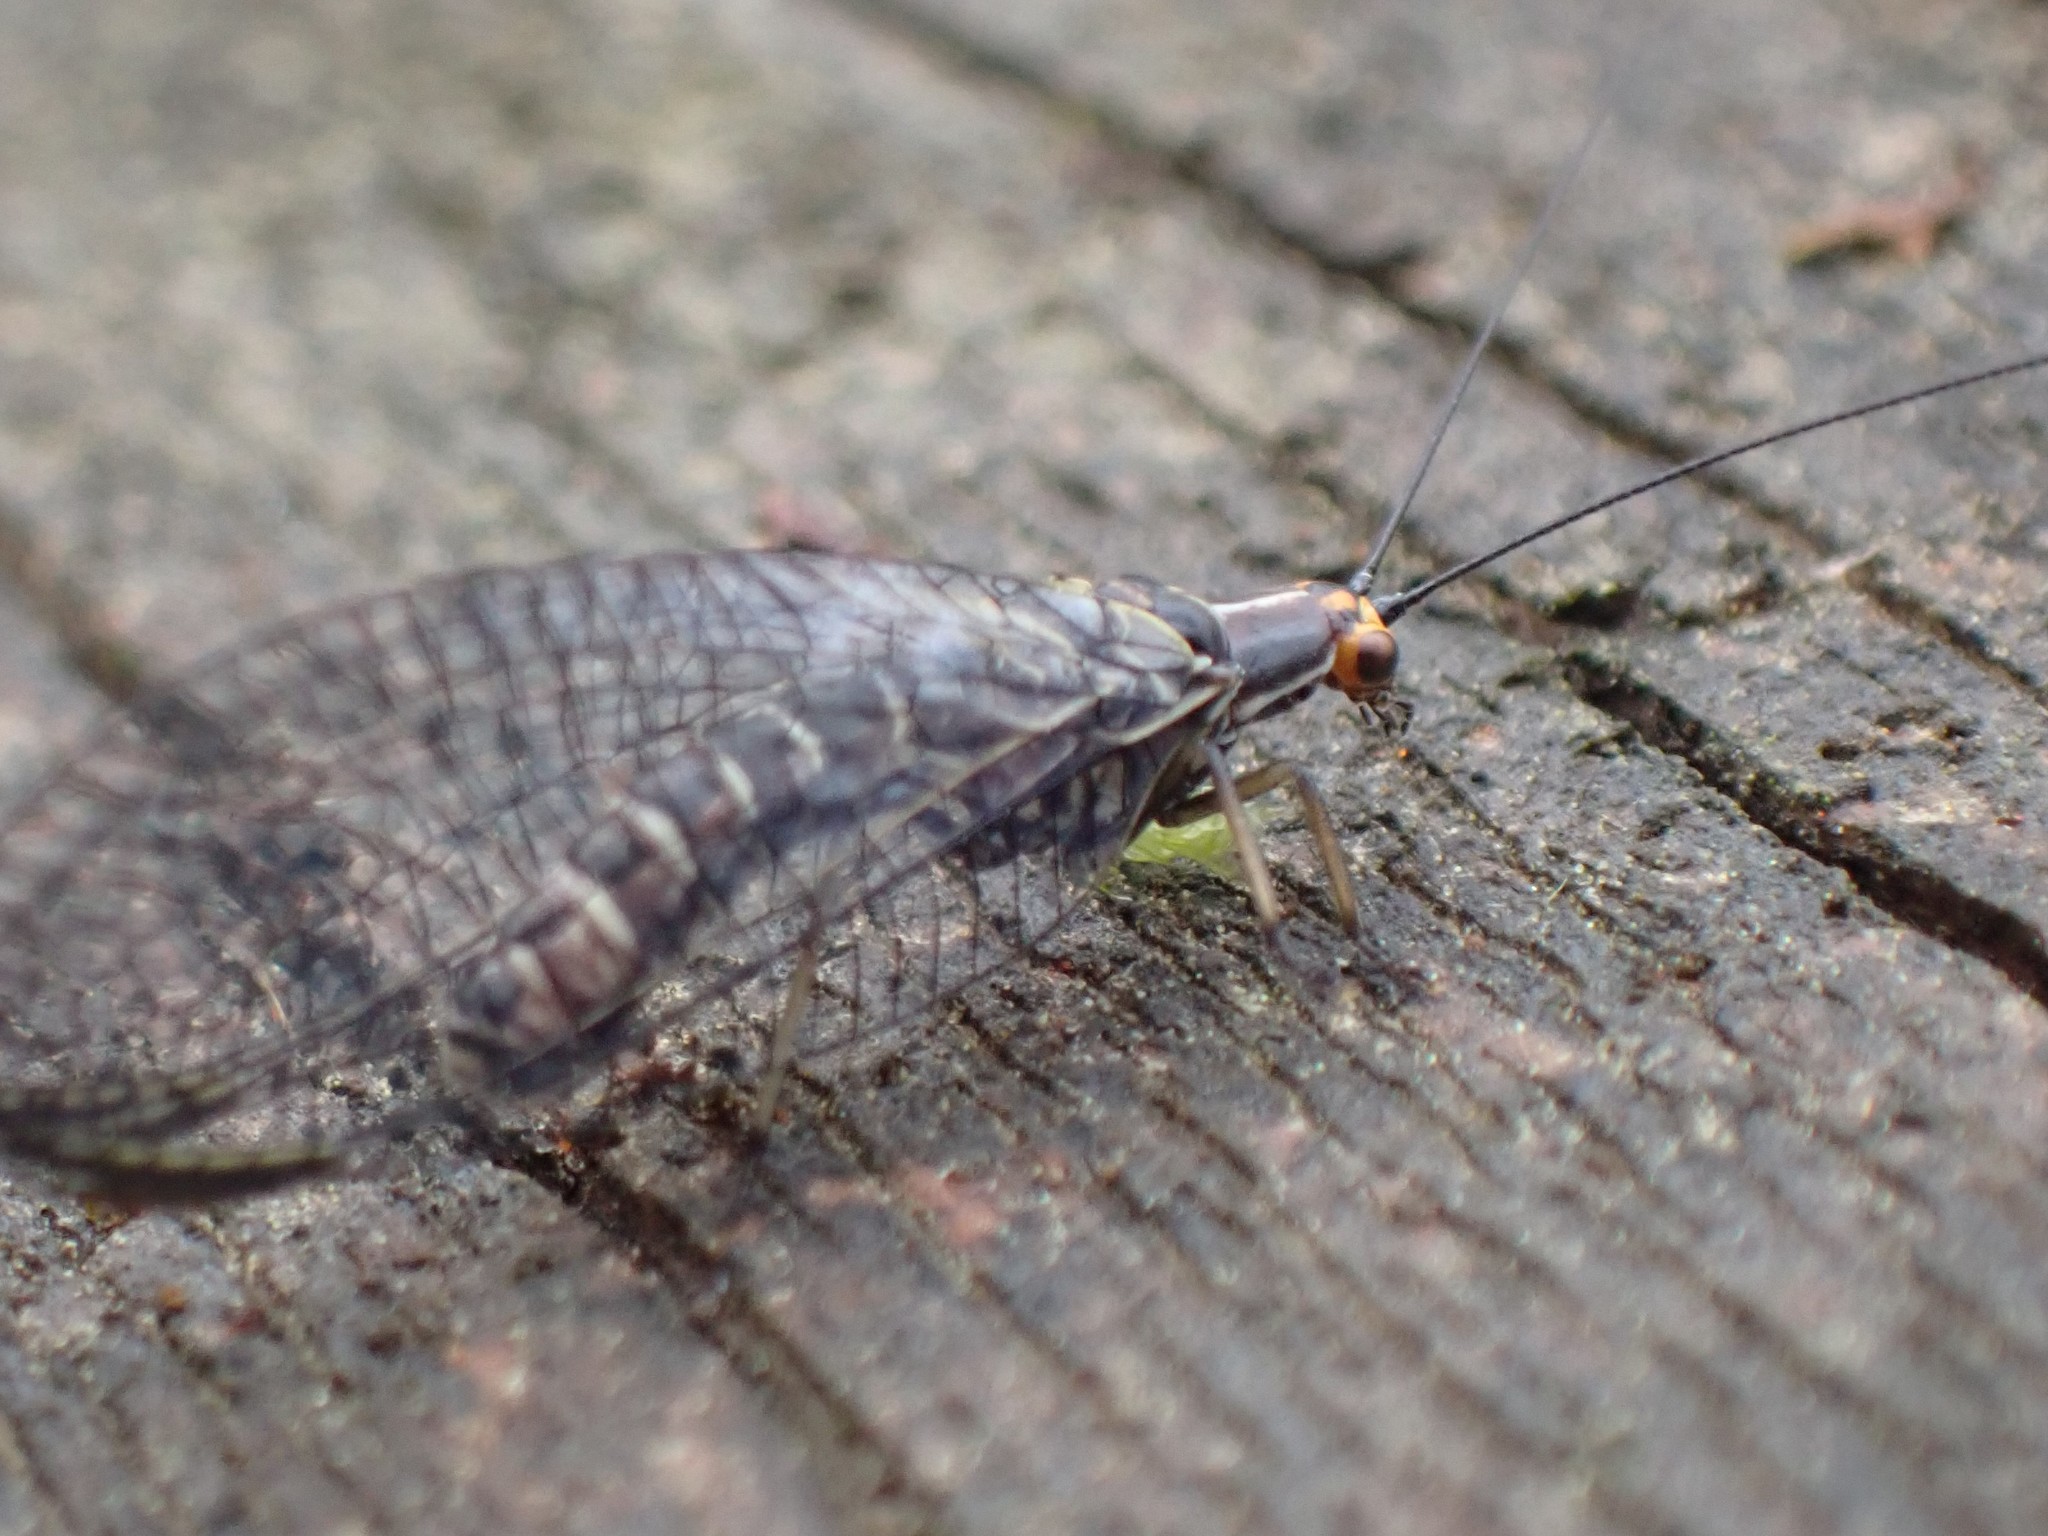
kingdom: Animalia
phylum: Arthropoda
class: Insecta
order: Neuroptera
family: Chrysopidae
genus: Nothochrysa
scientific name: Nothochrysa californica
